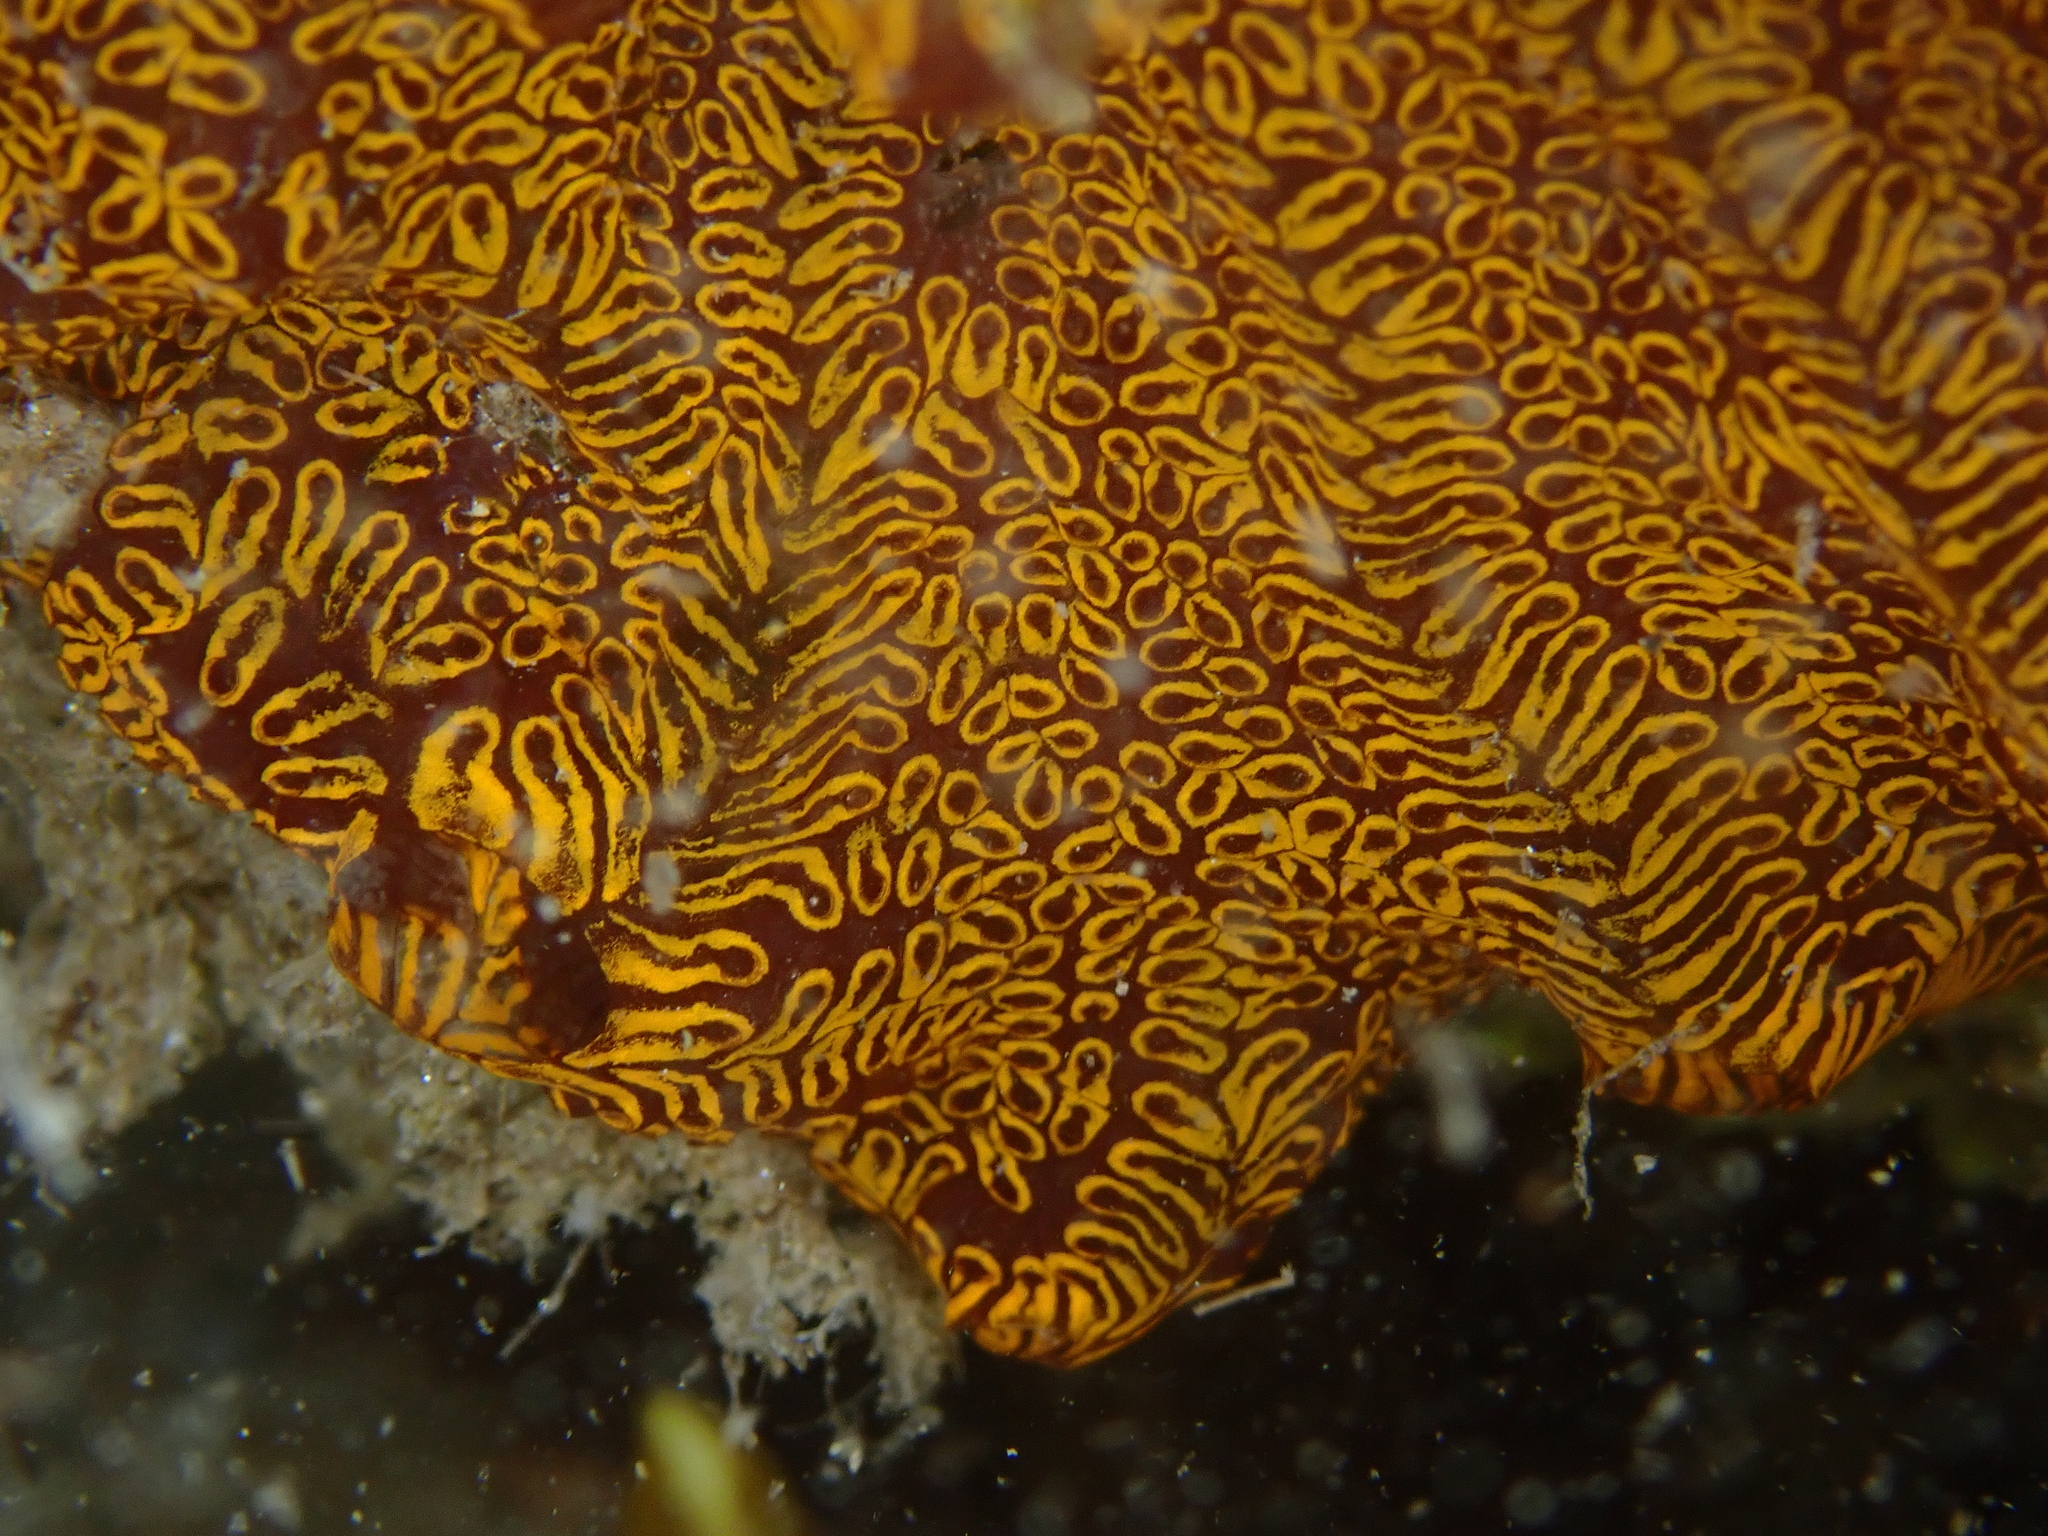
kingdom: Animalia
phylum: Chordata
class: Ascidiacea
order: Stolidobranchia
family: Styelidae
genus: Botrylloides
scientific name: Botrylloides niger
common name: Black synascidia
